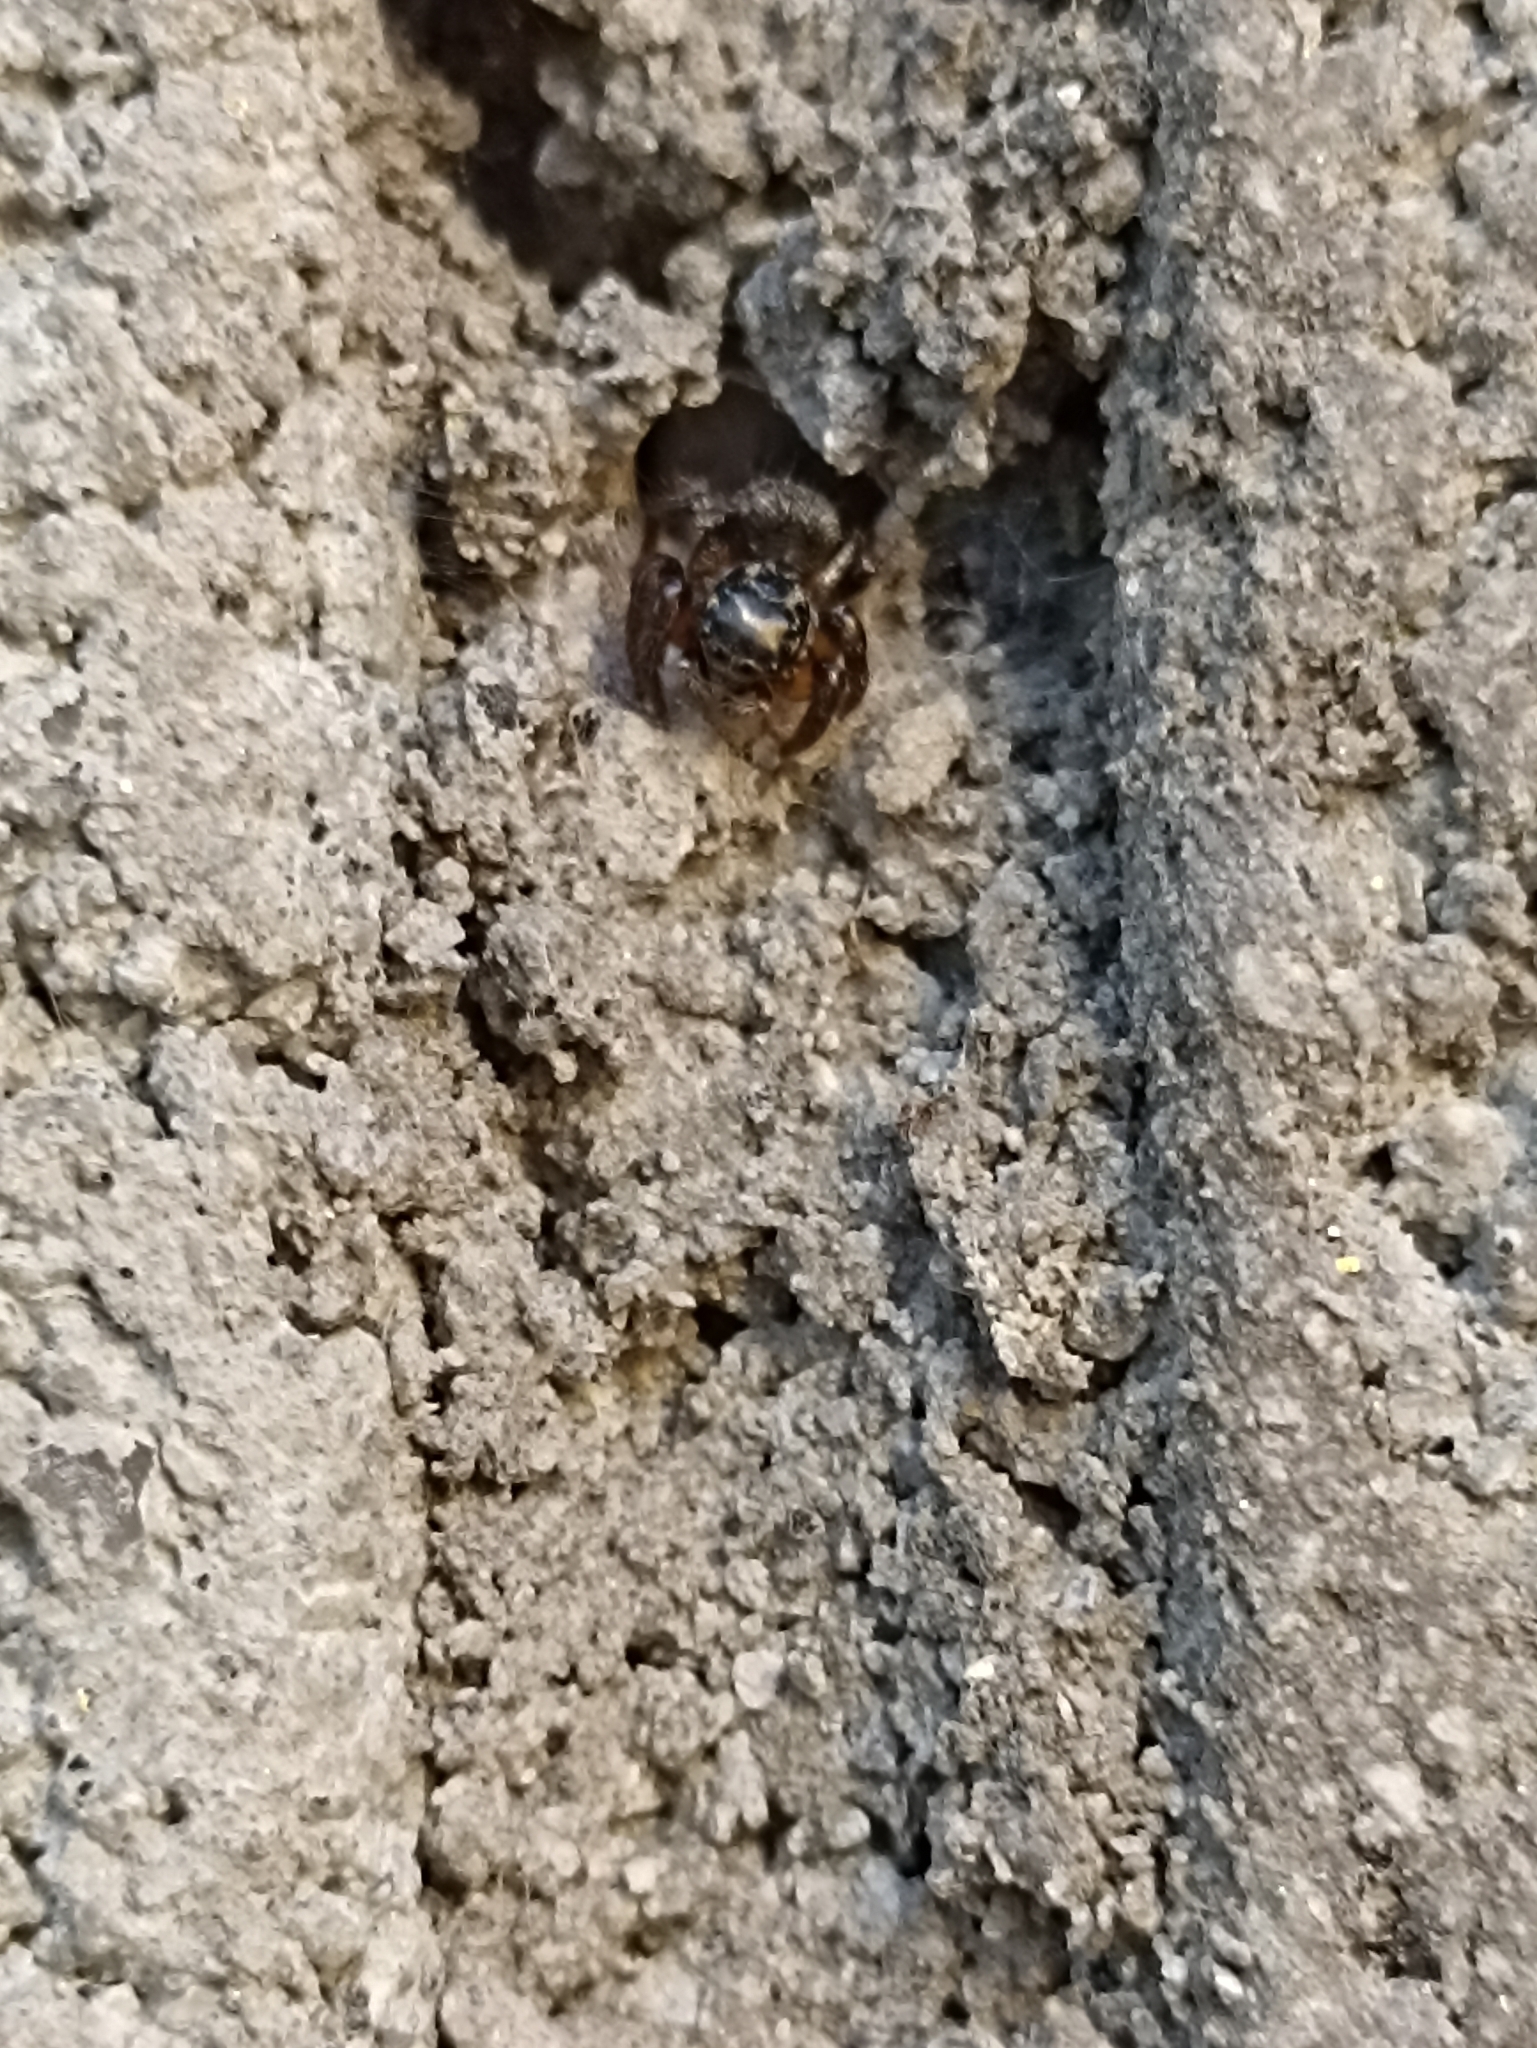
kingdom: Animalia
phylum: Arthropoda
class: Arachnida
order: Araneae
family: Salticidae
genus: Corythalia
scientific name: Corythalia conferta
